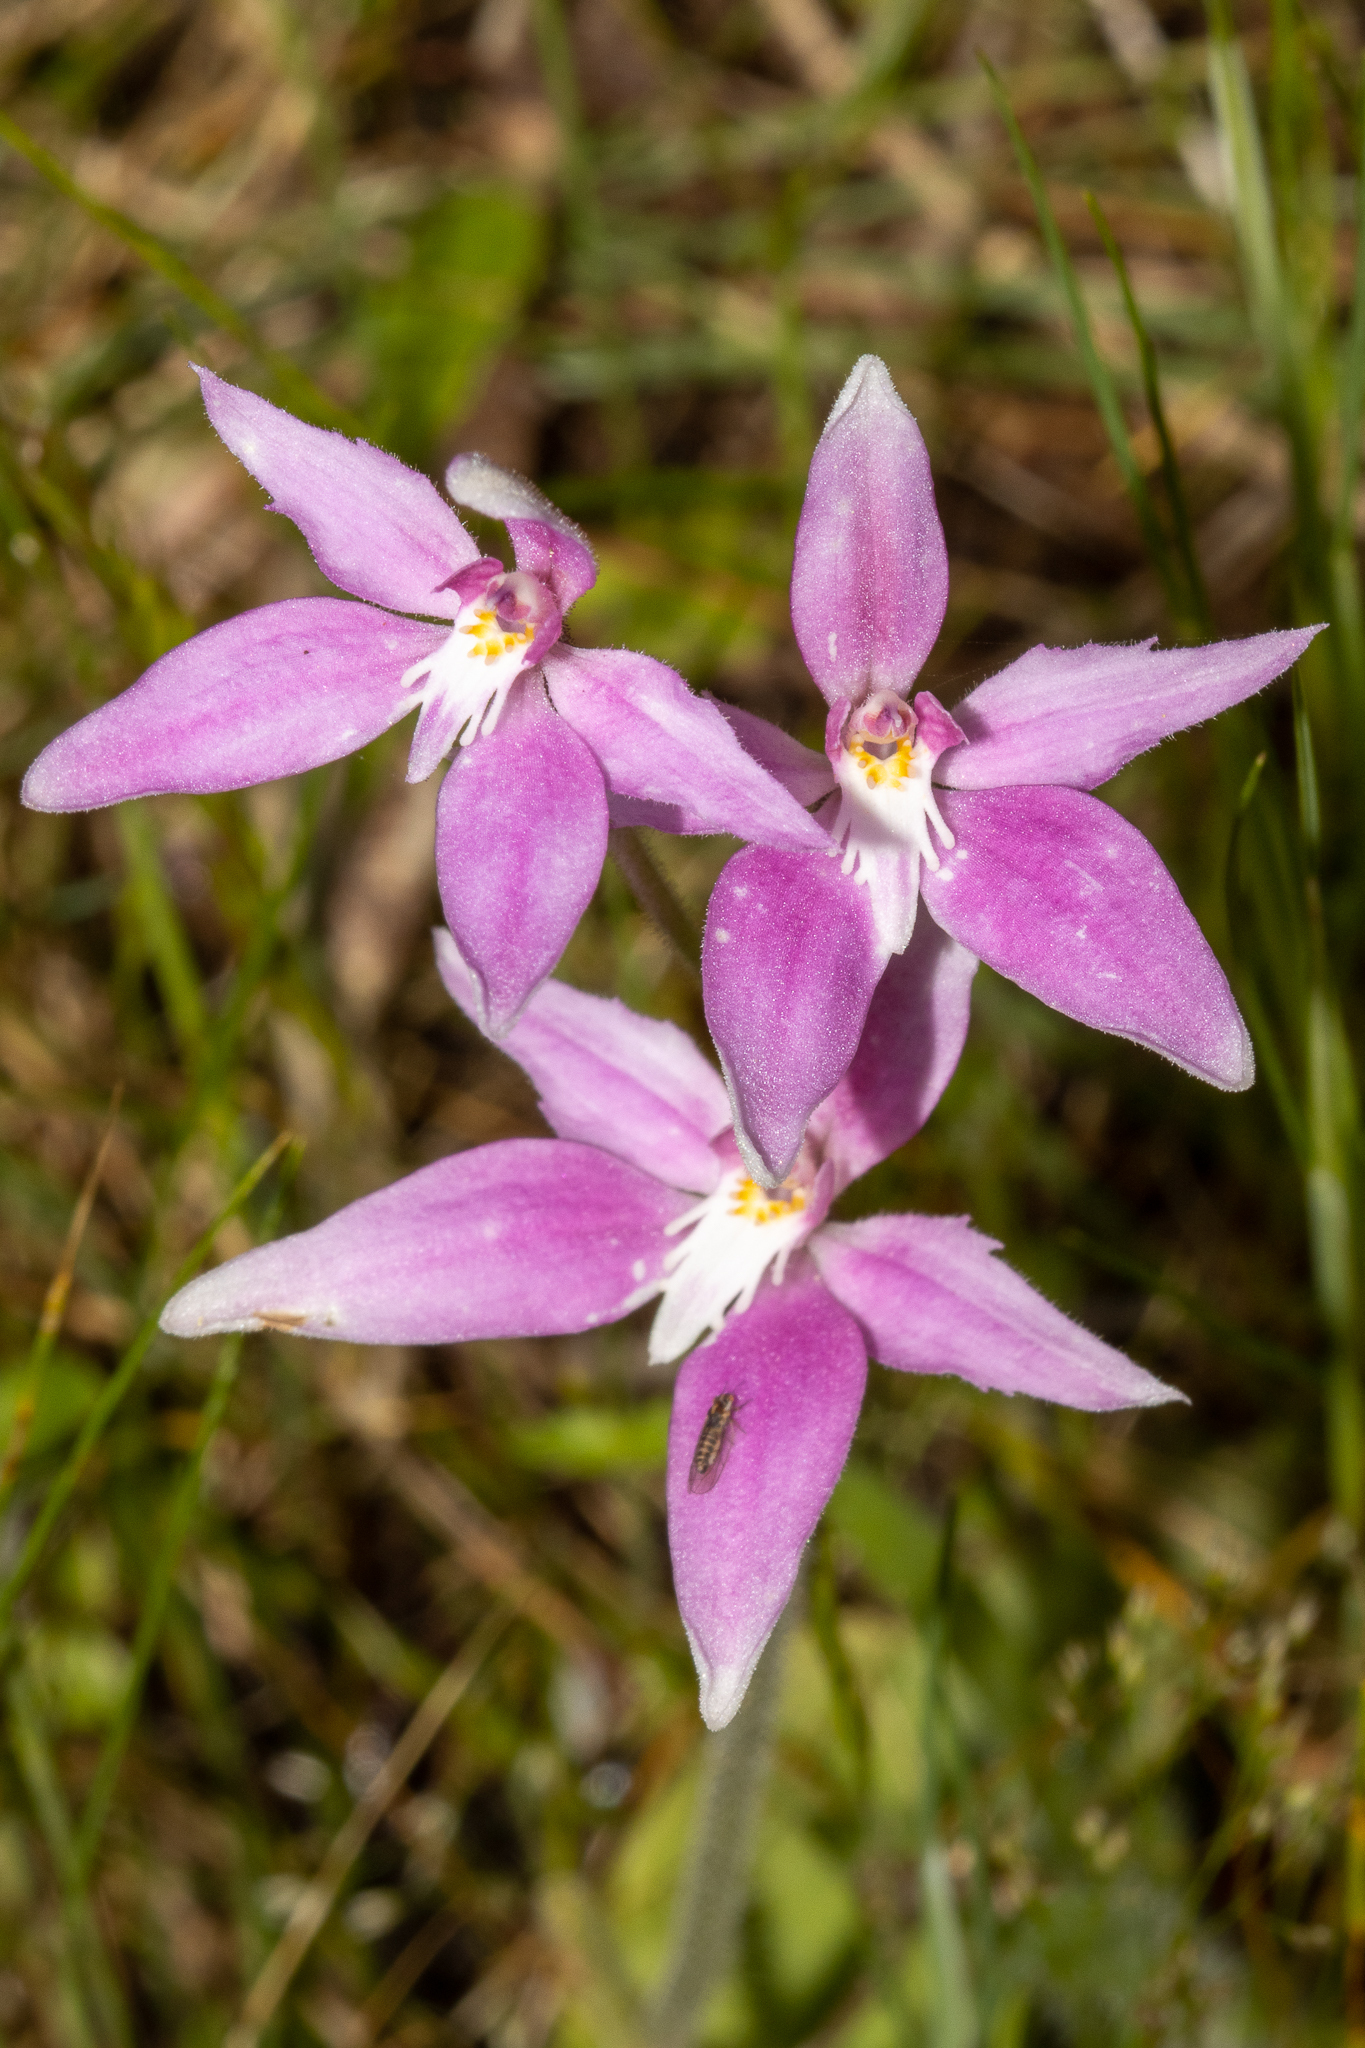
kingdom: Plantae
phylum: Tracheophyta
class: Liliopsida
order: Asparagales
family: Orchidaceae
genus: Caladenia
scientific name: Caladenia latifolia
